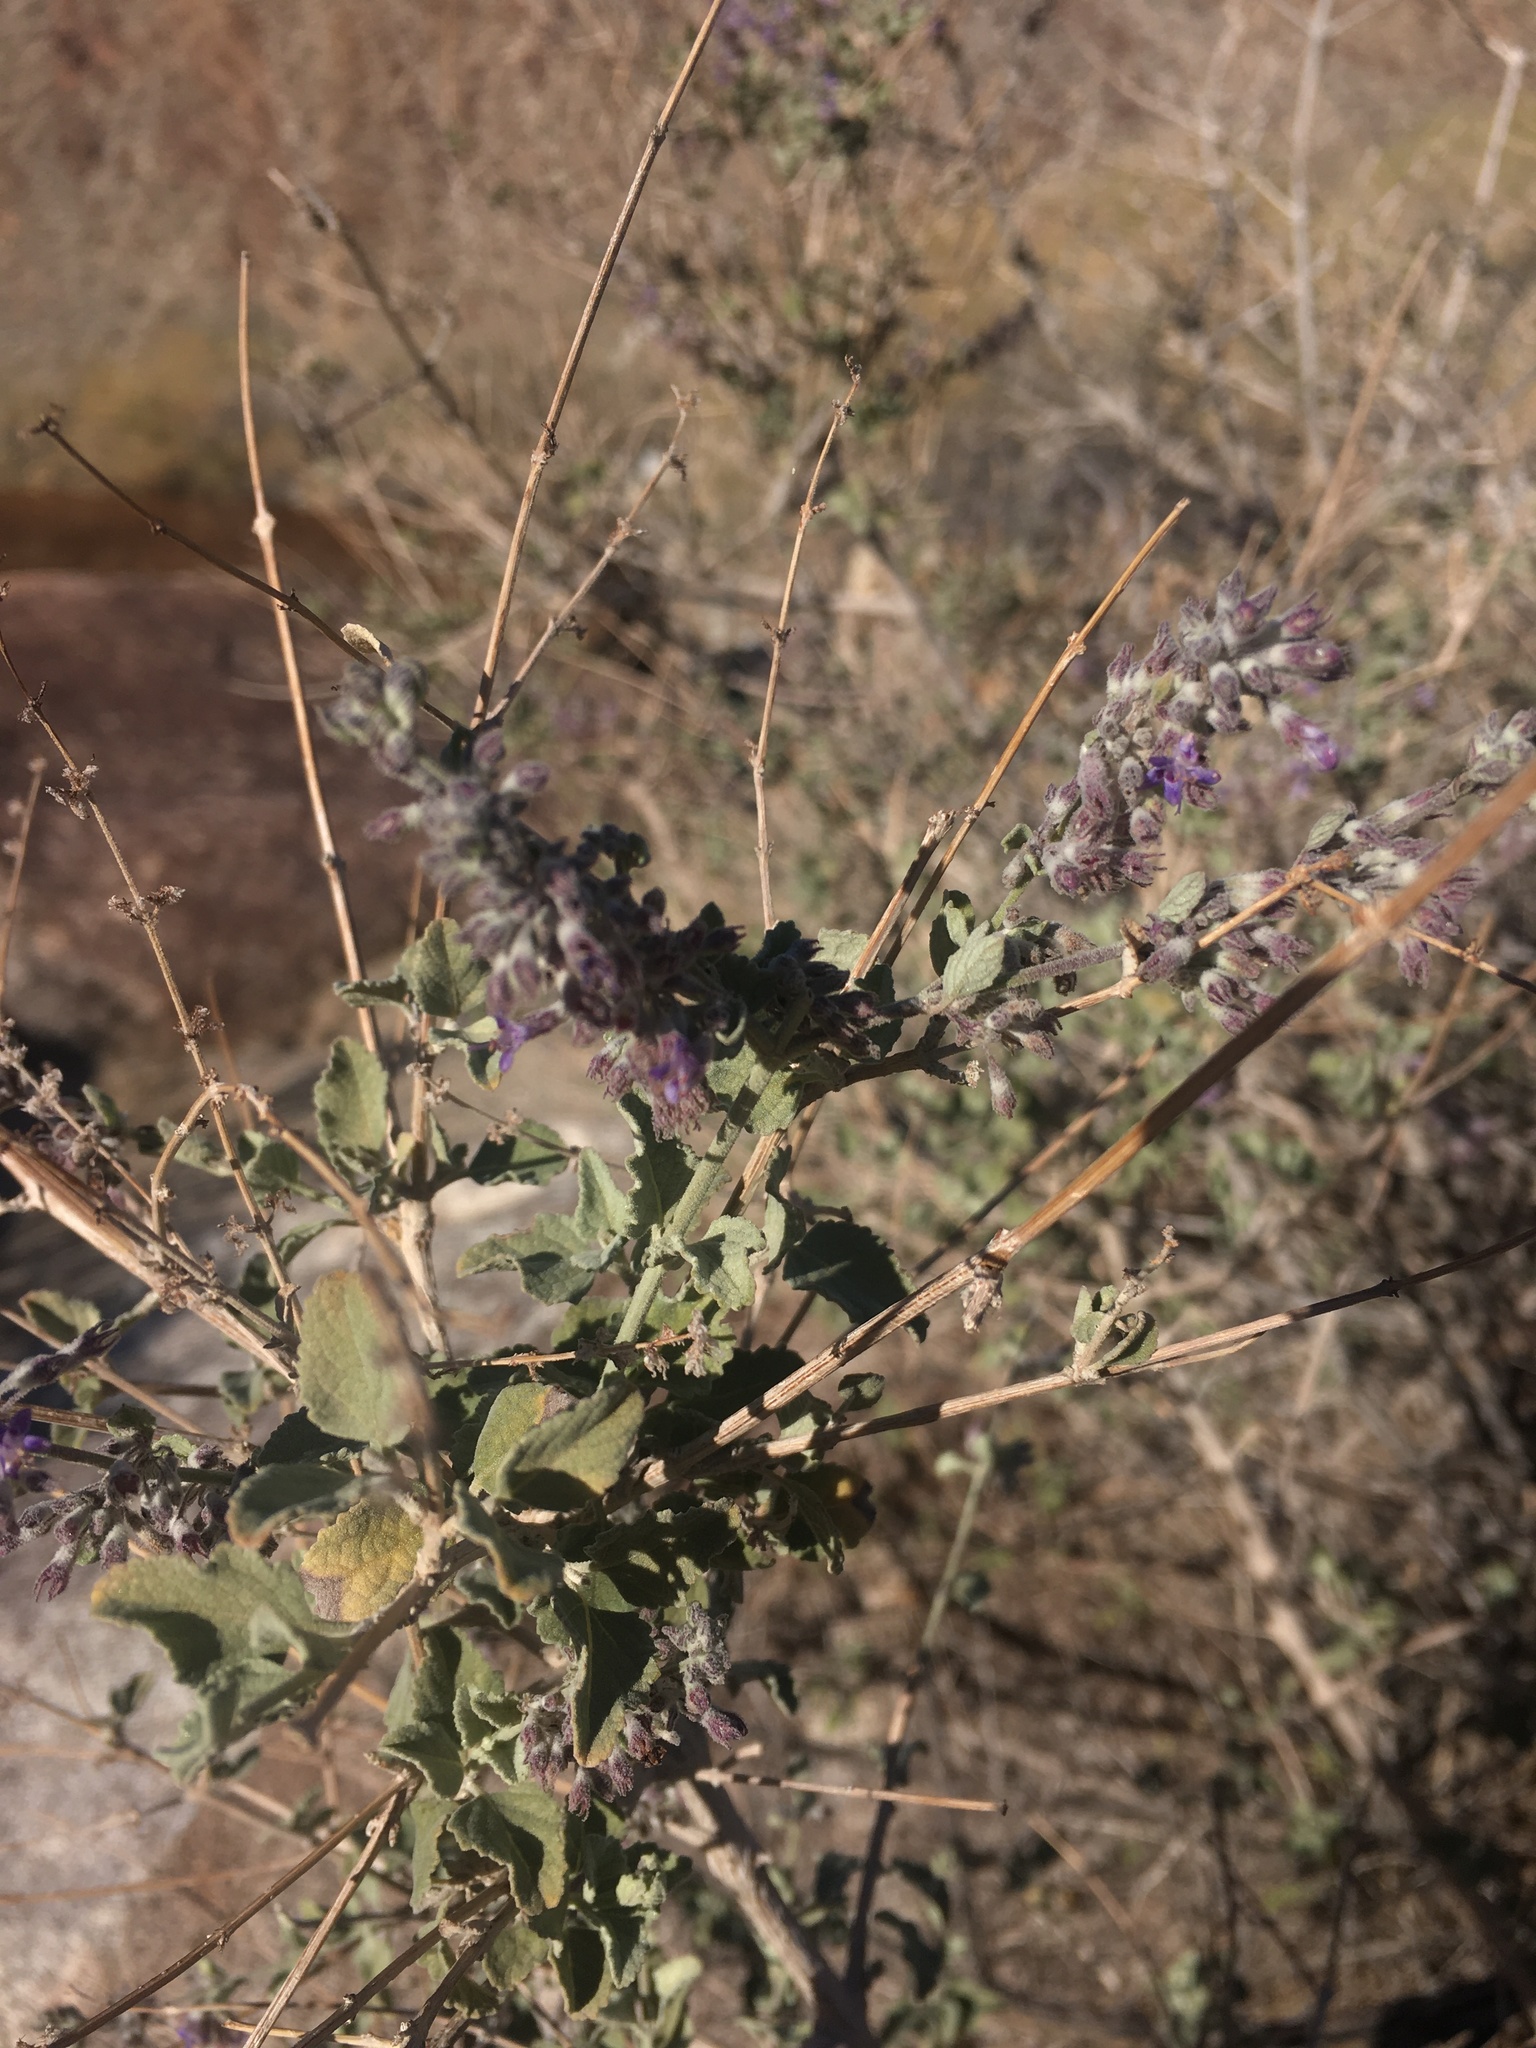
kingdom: Plantae
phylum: Tracheophyta
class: Magnoliopsida
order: Lamiales
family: Lamiaceae
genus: Condea
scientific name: Condea emoryi
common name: Chia
